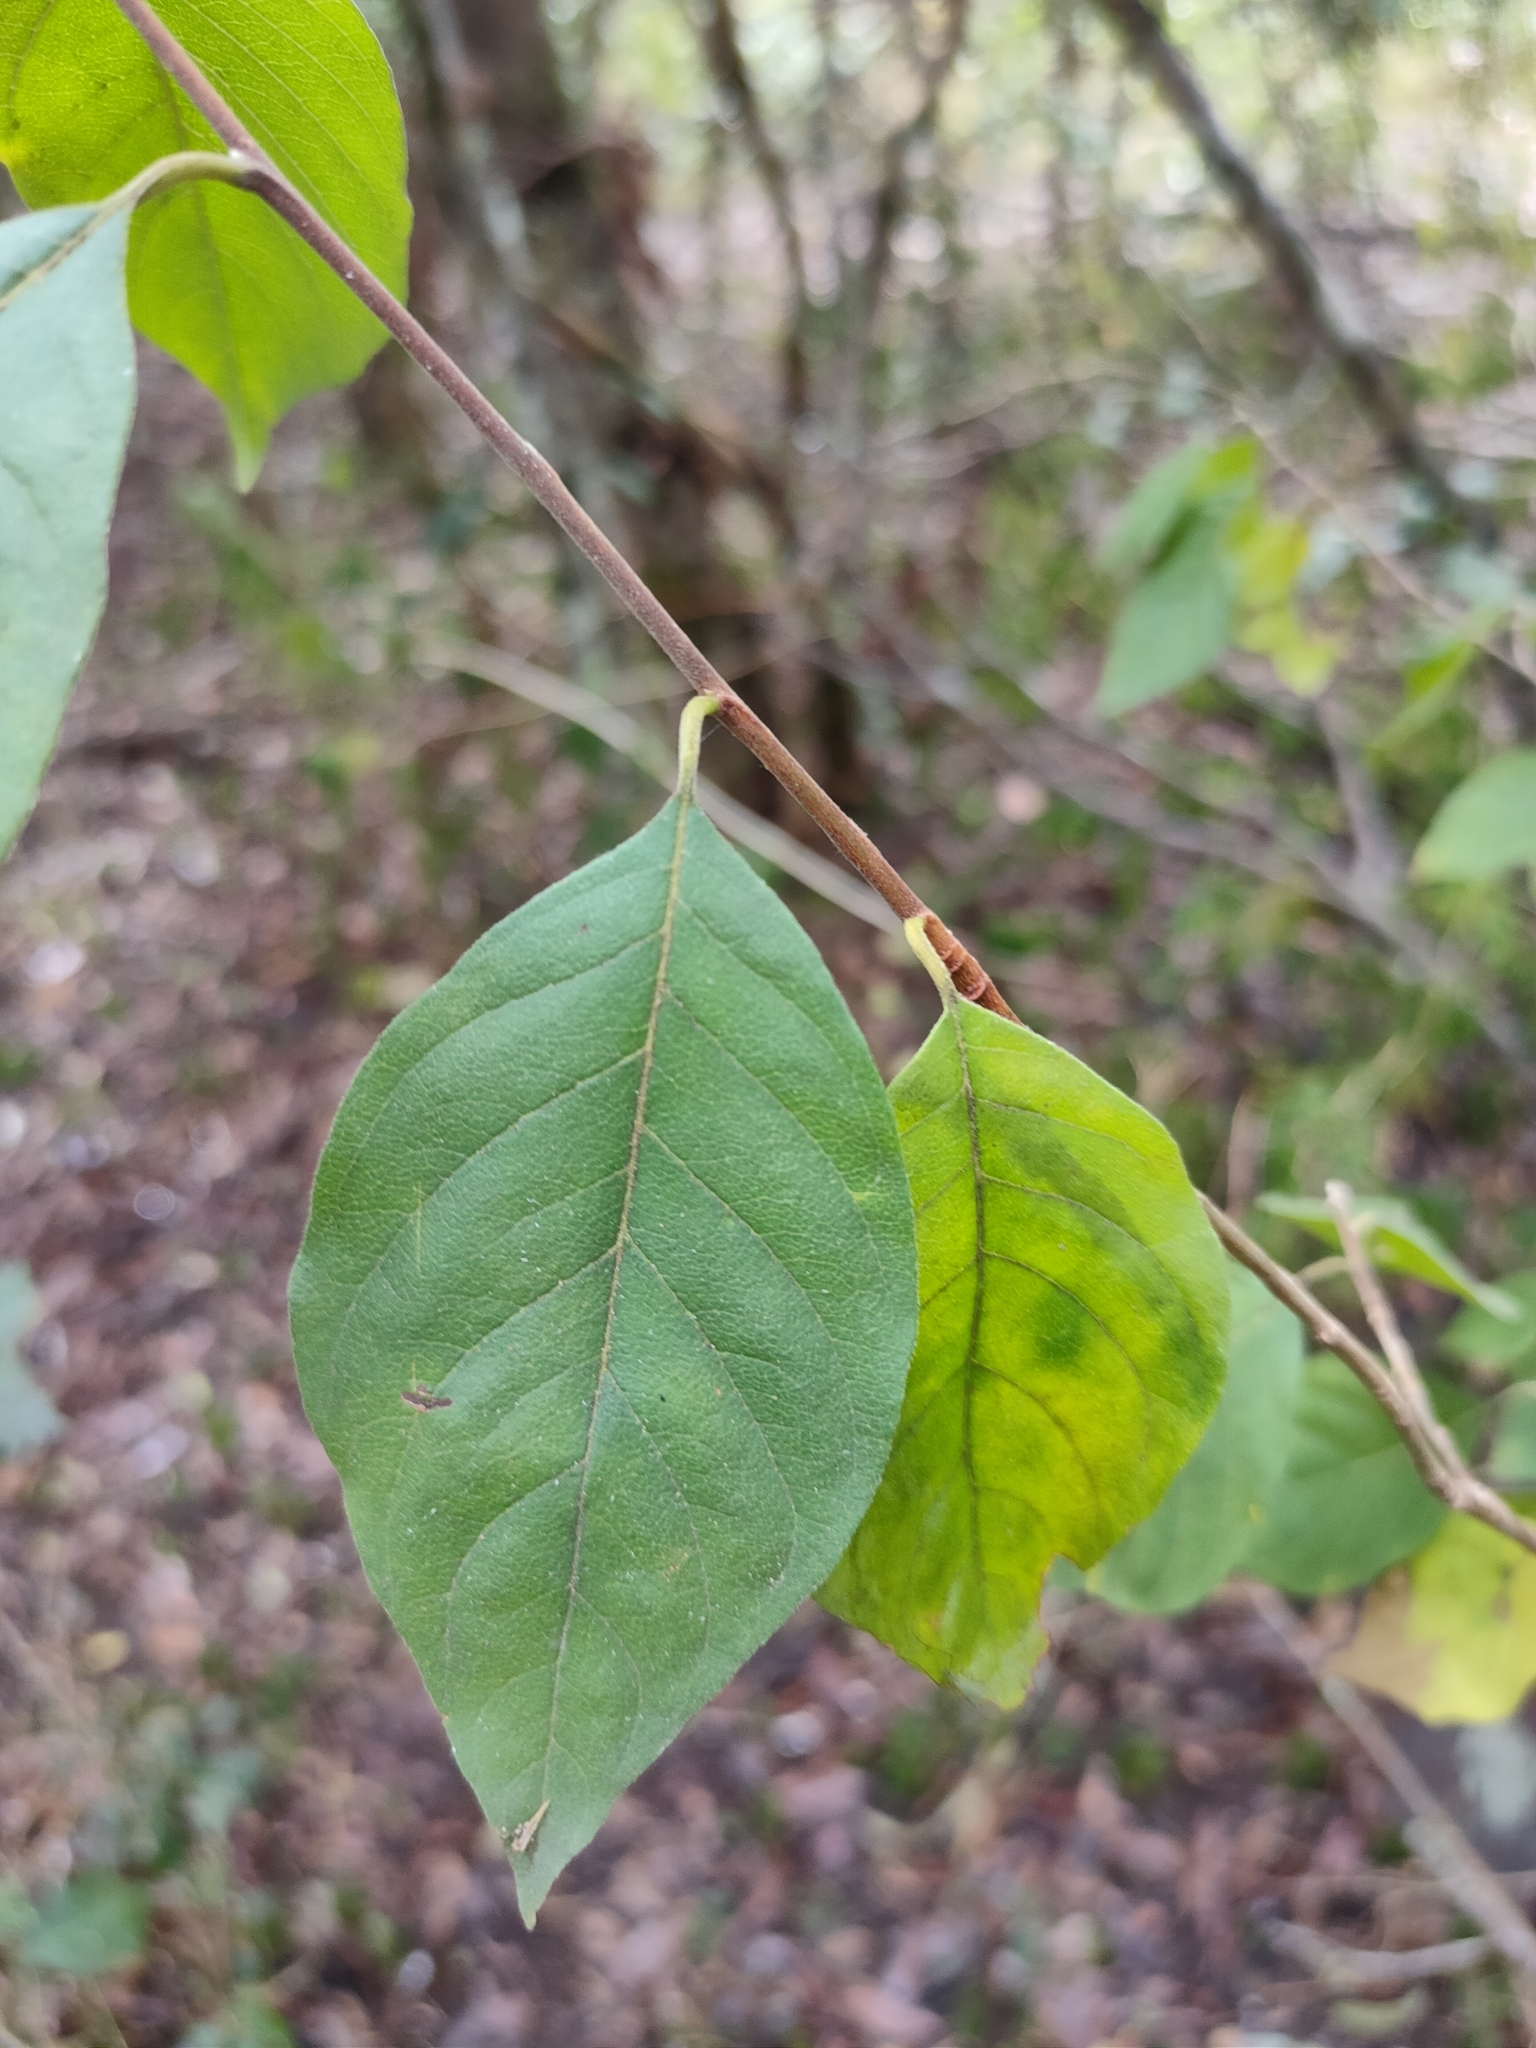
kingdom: Plantae
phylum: Tracheophyta
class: Magnoliopsida
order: Sapindales
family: Meliaceae
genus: Turraea
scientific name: Turraea pubescens
